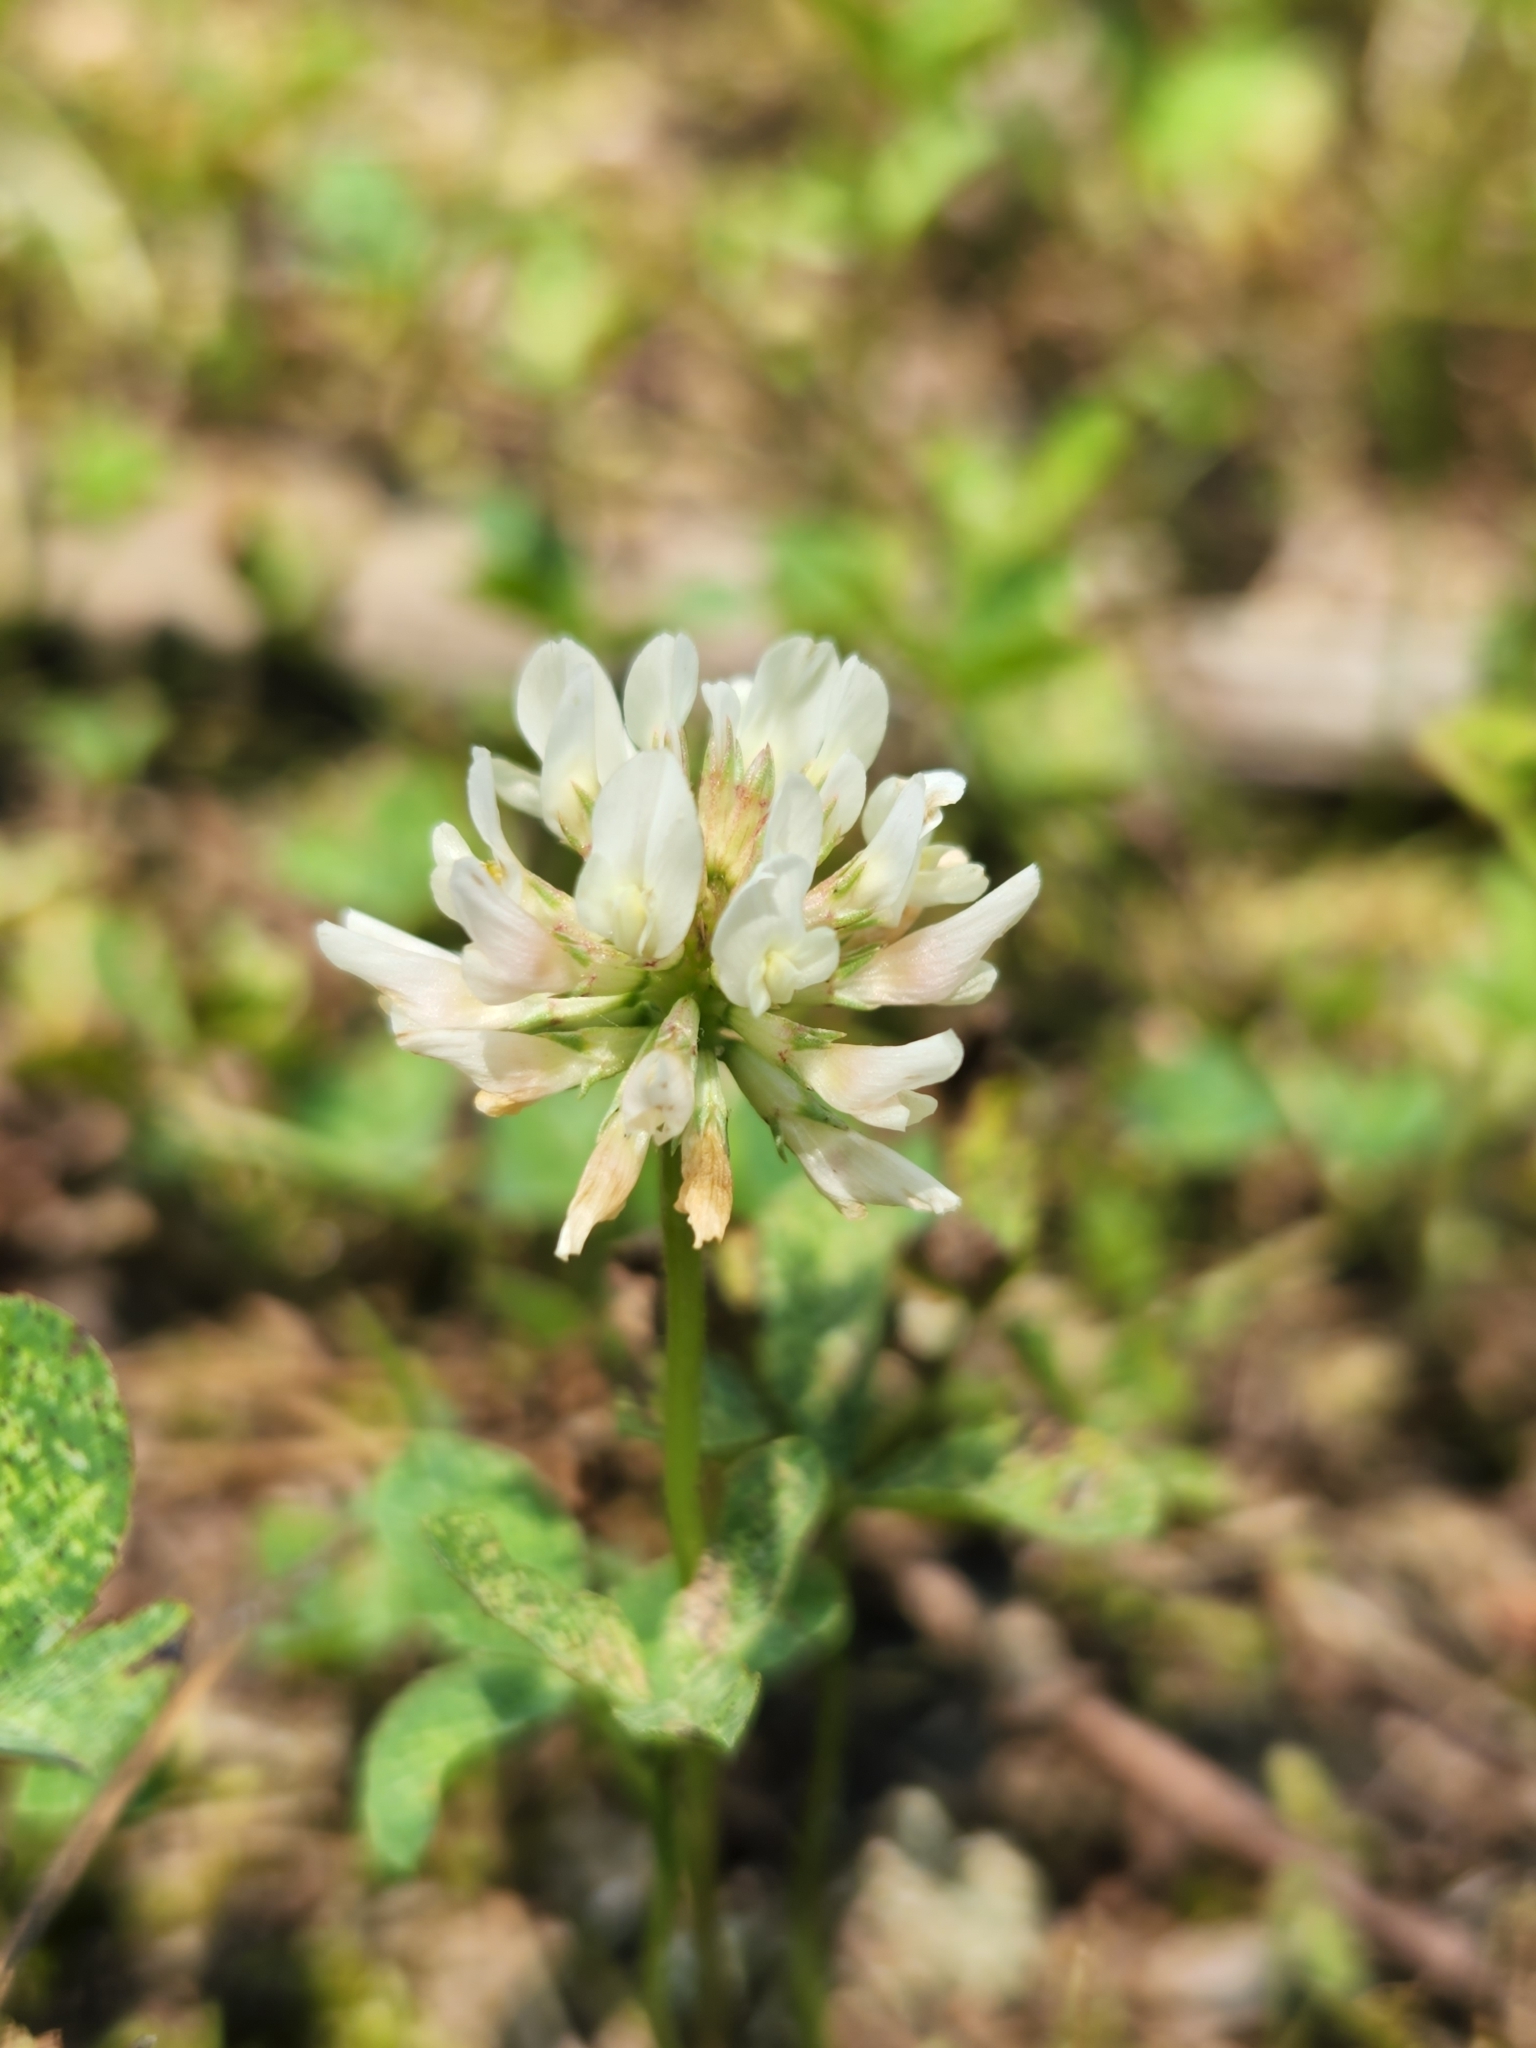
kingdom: Plantae
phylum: Tracheophyta
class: Magnoliopsida
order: Fabales
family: Fabaceae
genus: Trifolium
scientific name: Trifolium repens
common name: White clover
